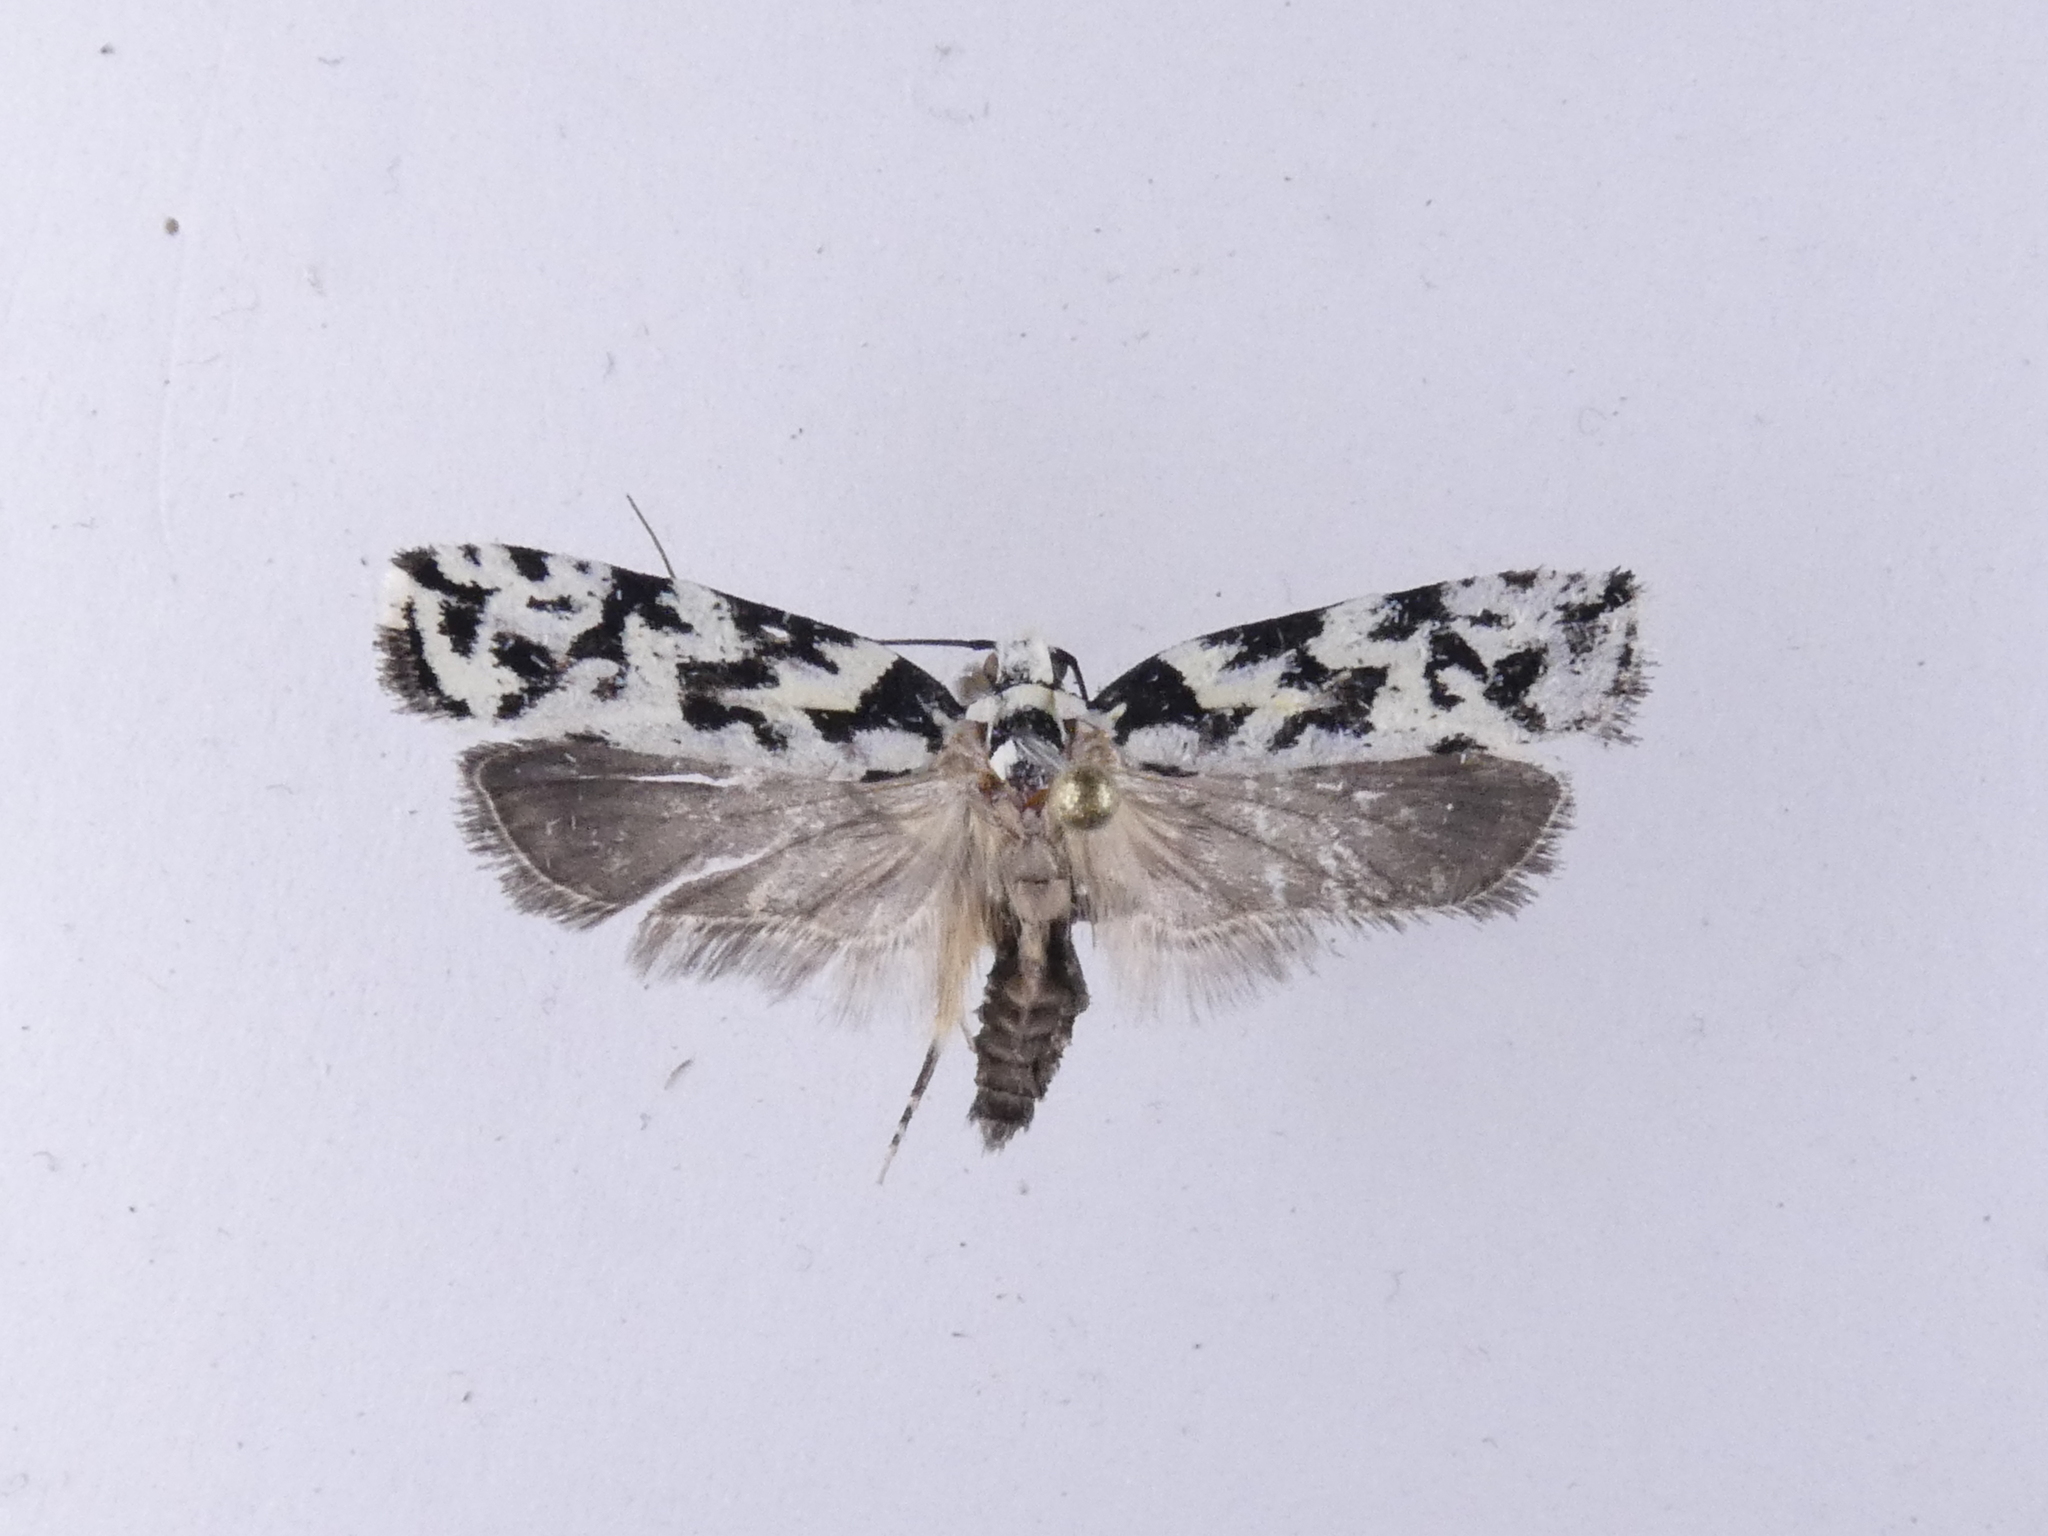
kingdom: Animalia
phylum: Arthropoda
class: Insecta
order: Lepidoptera
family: Oecophoridae
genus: Izatha
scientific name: Izatha
